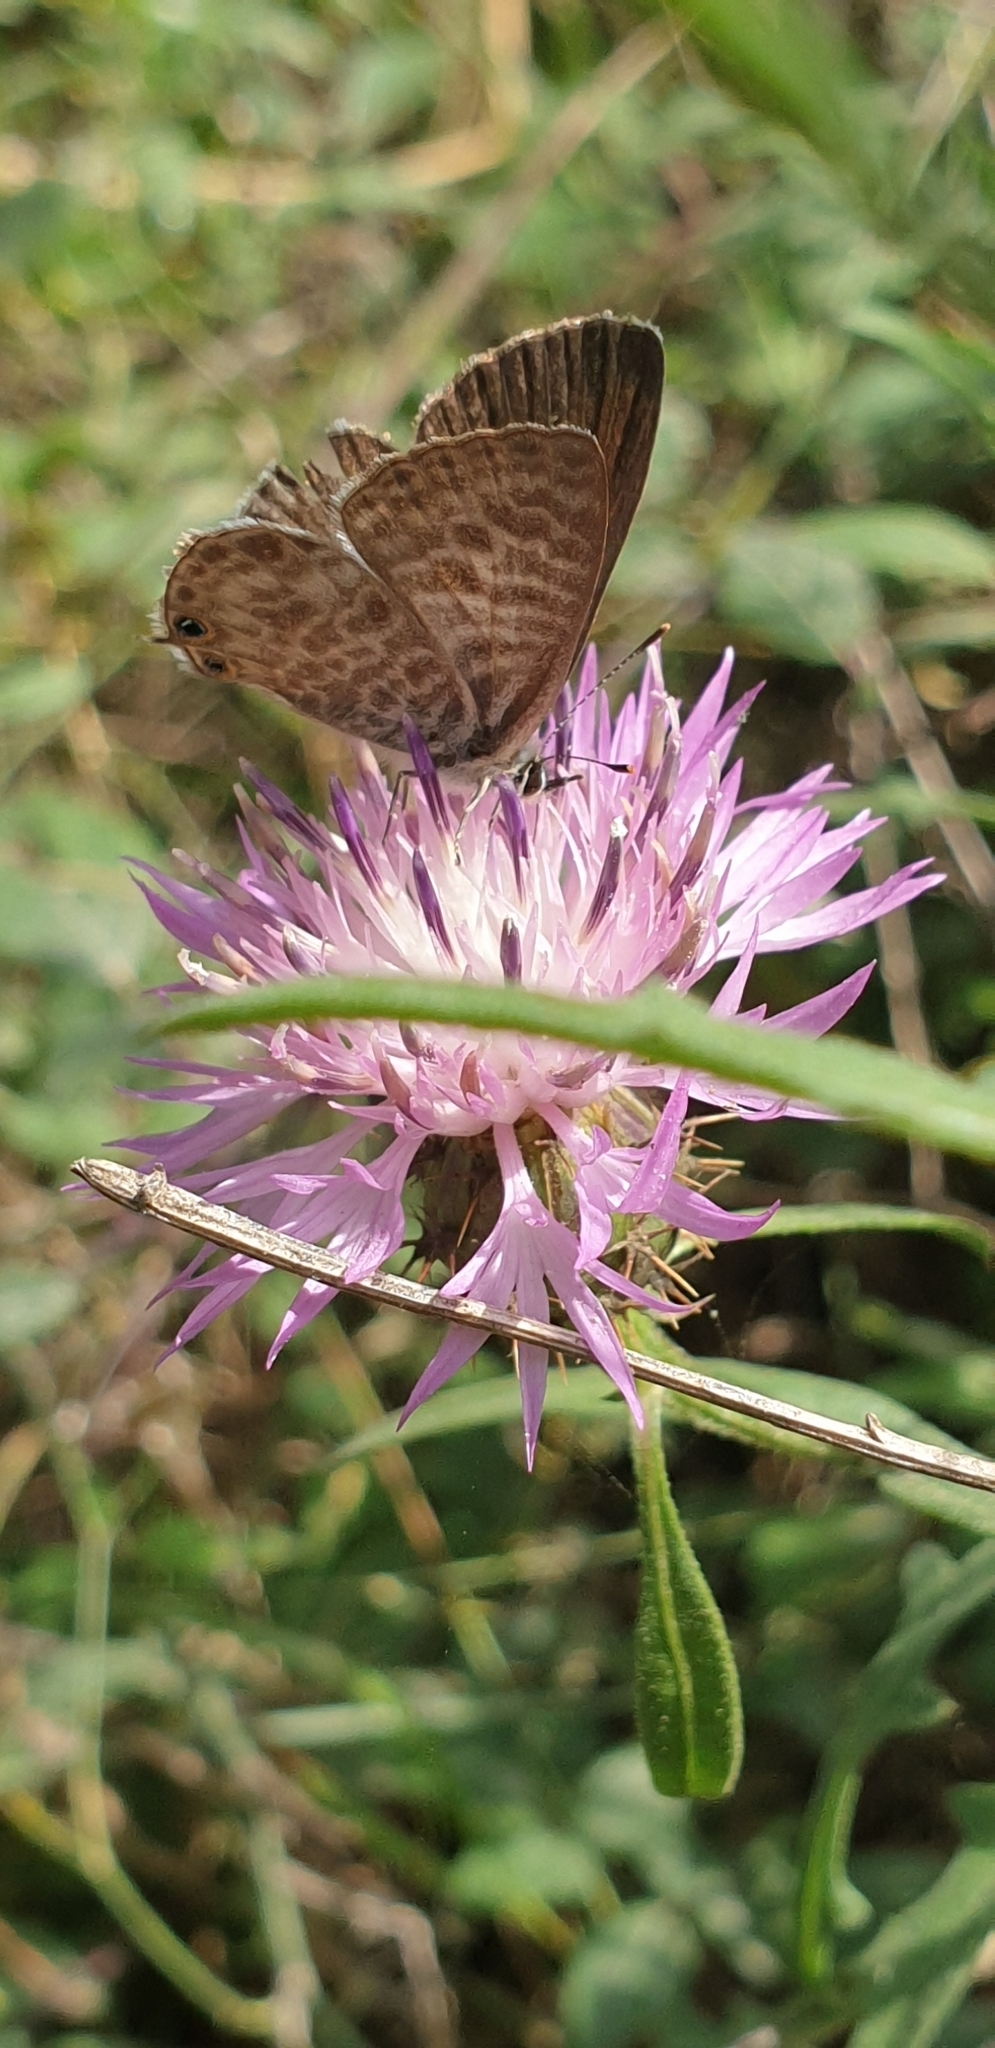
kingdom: Animalia
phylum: Arthropoda
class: Insecta
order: Lepidoptera
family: Lycaenidae
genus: Leptotes
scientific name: Leptotes pirithous
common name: Lang's short-tailed blue
